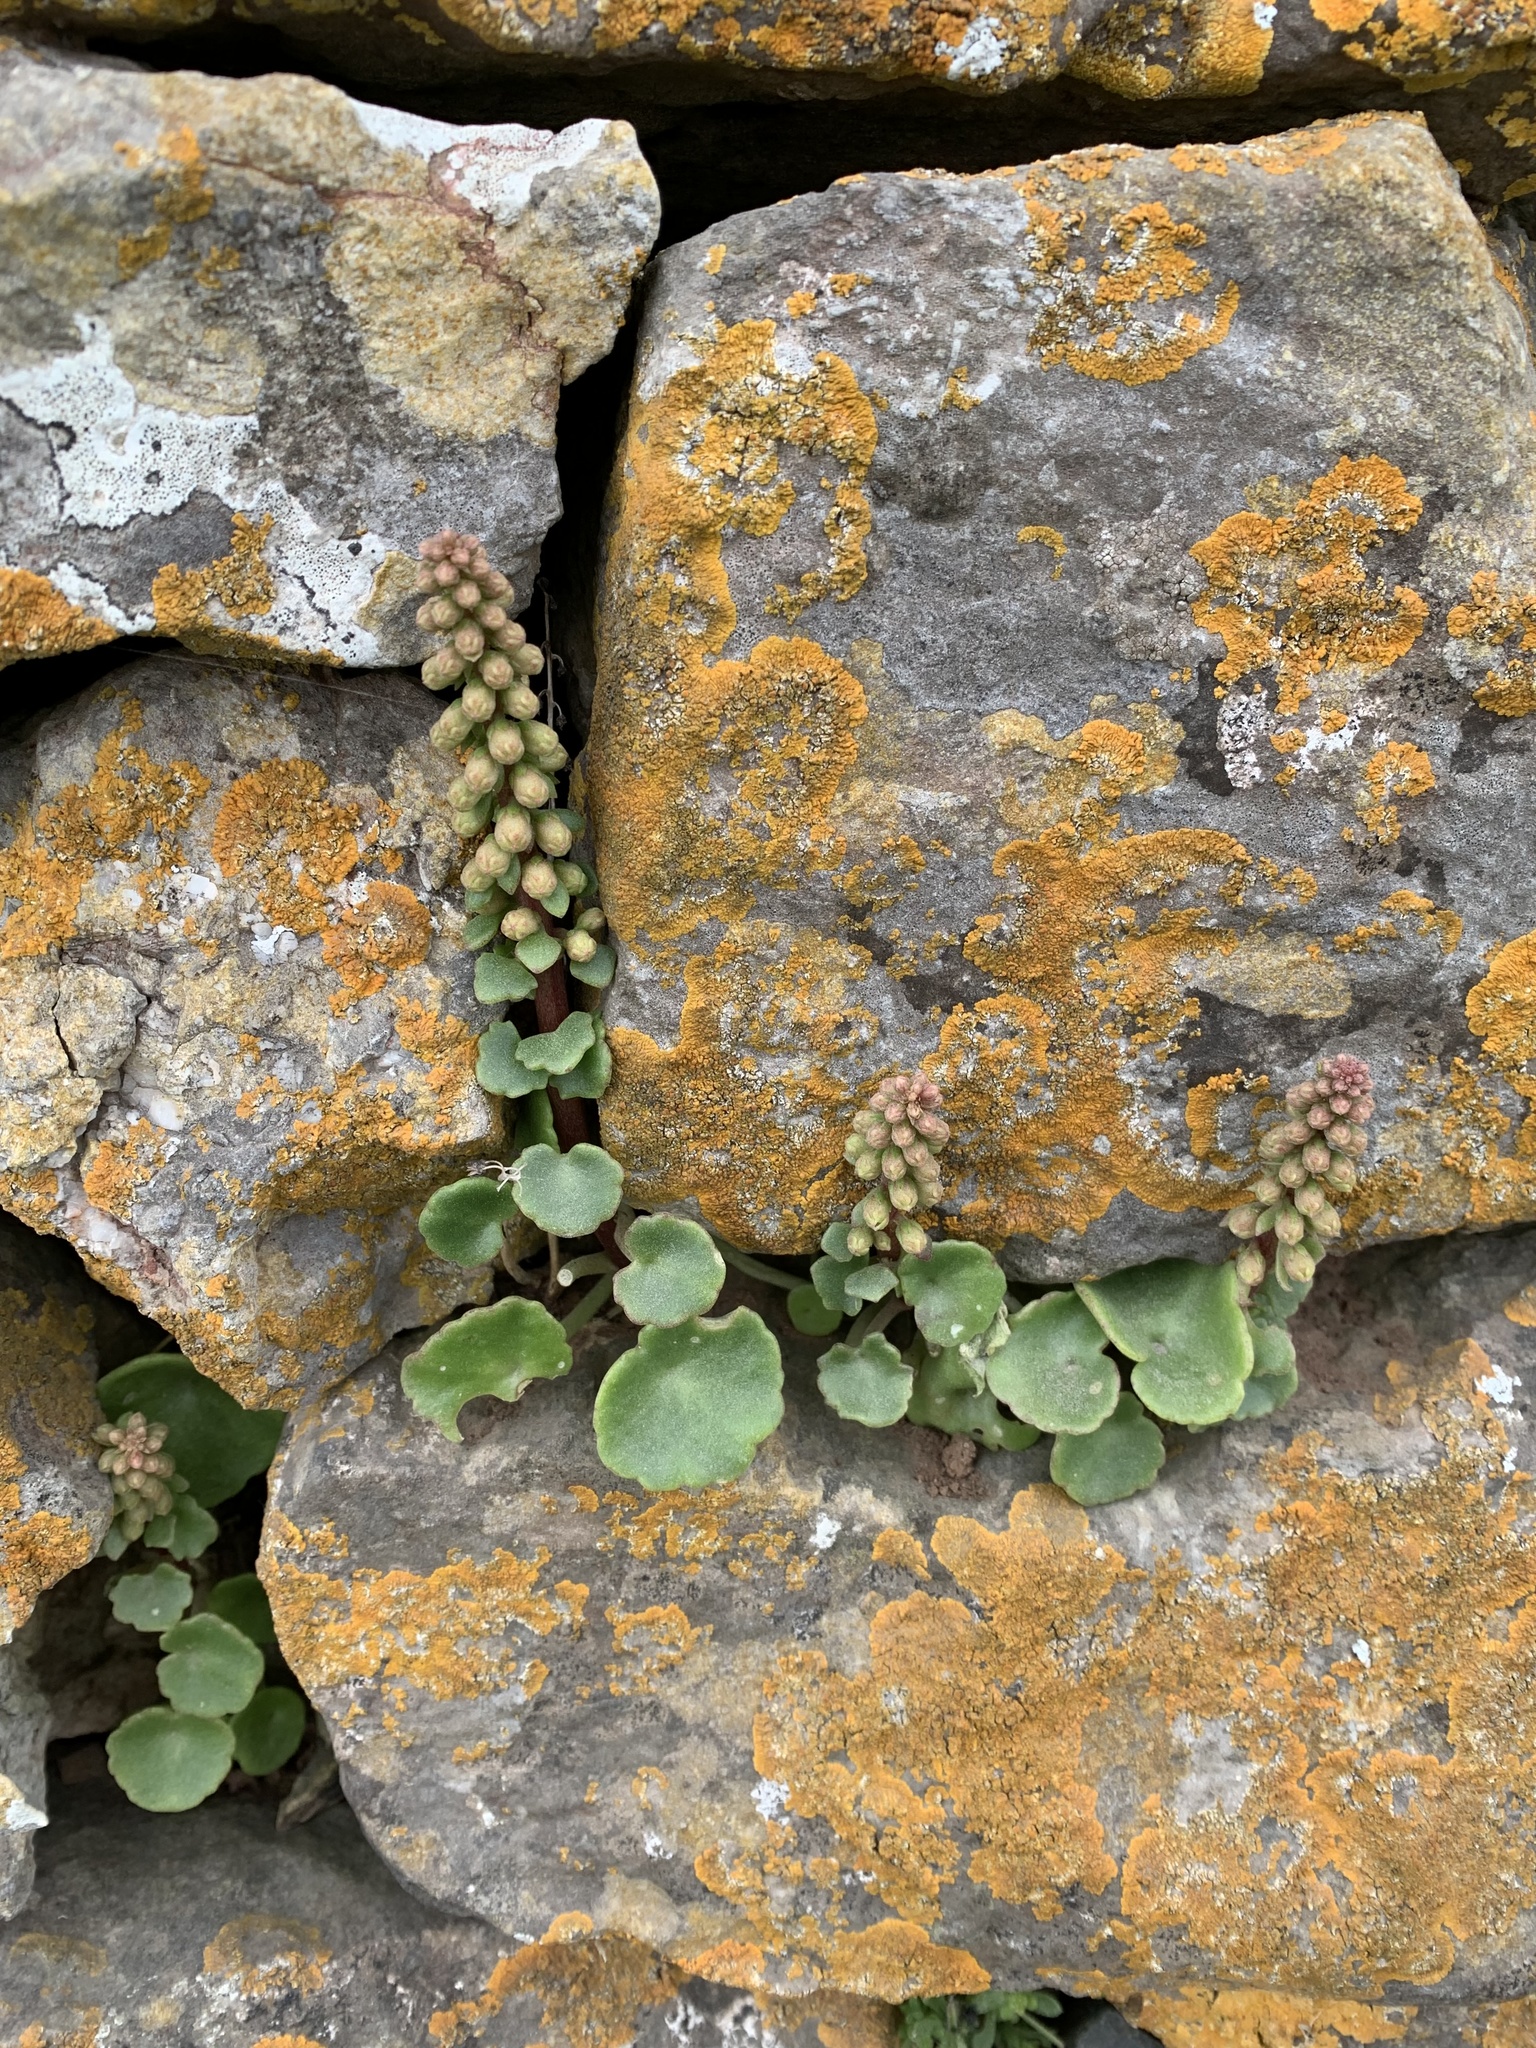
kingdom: Plantae
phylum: Tracheophyta
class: Magnoliopsida
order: Saxifragales
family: Crassulaceae
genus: Umbilicus
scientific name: Umbilicus rupestris
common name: Navelwort
